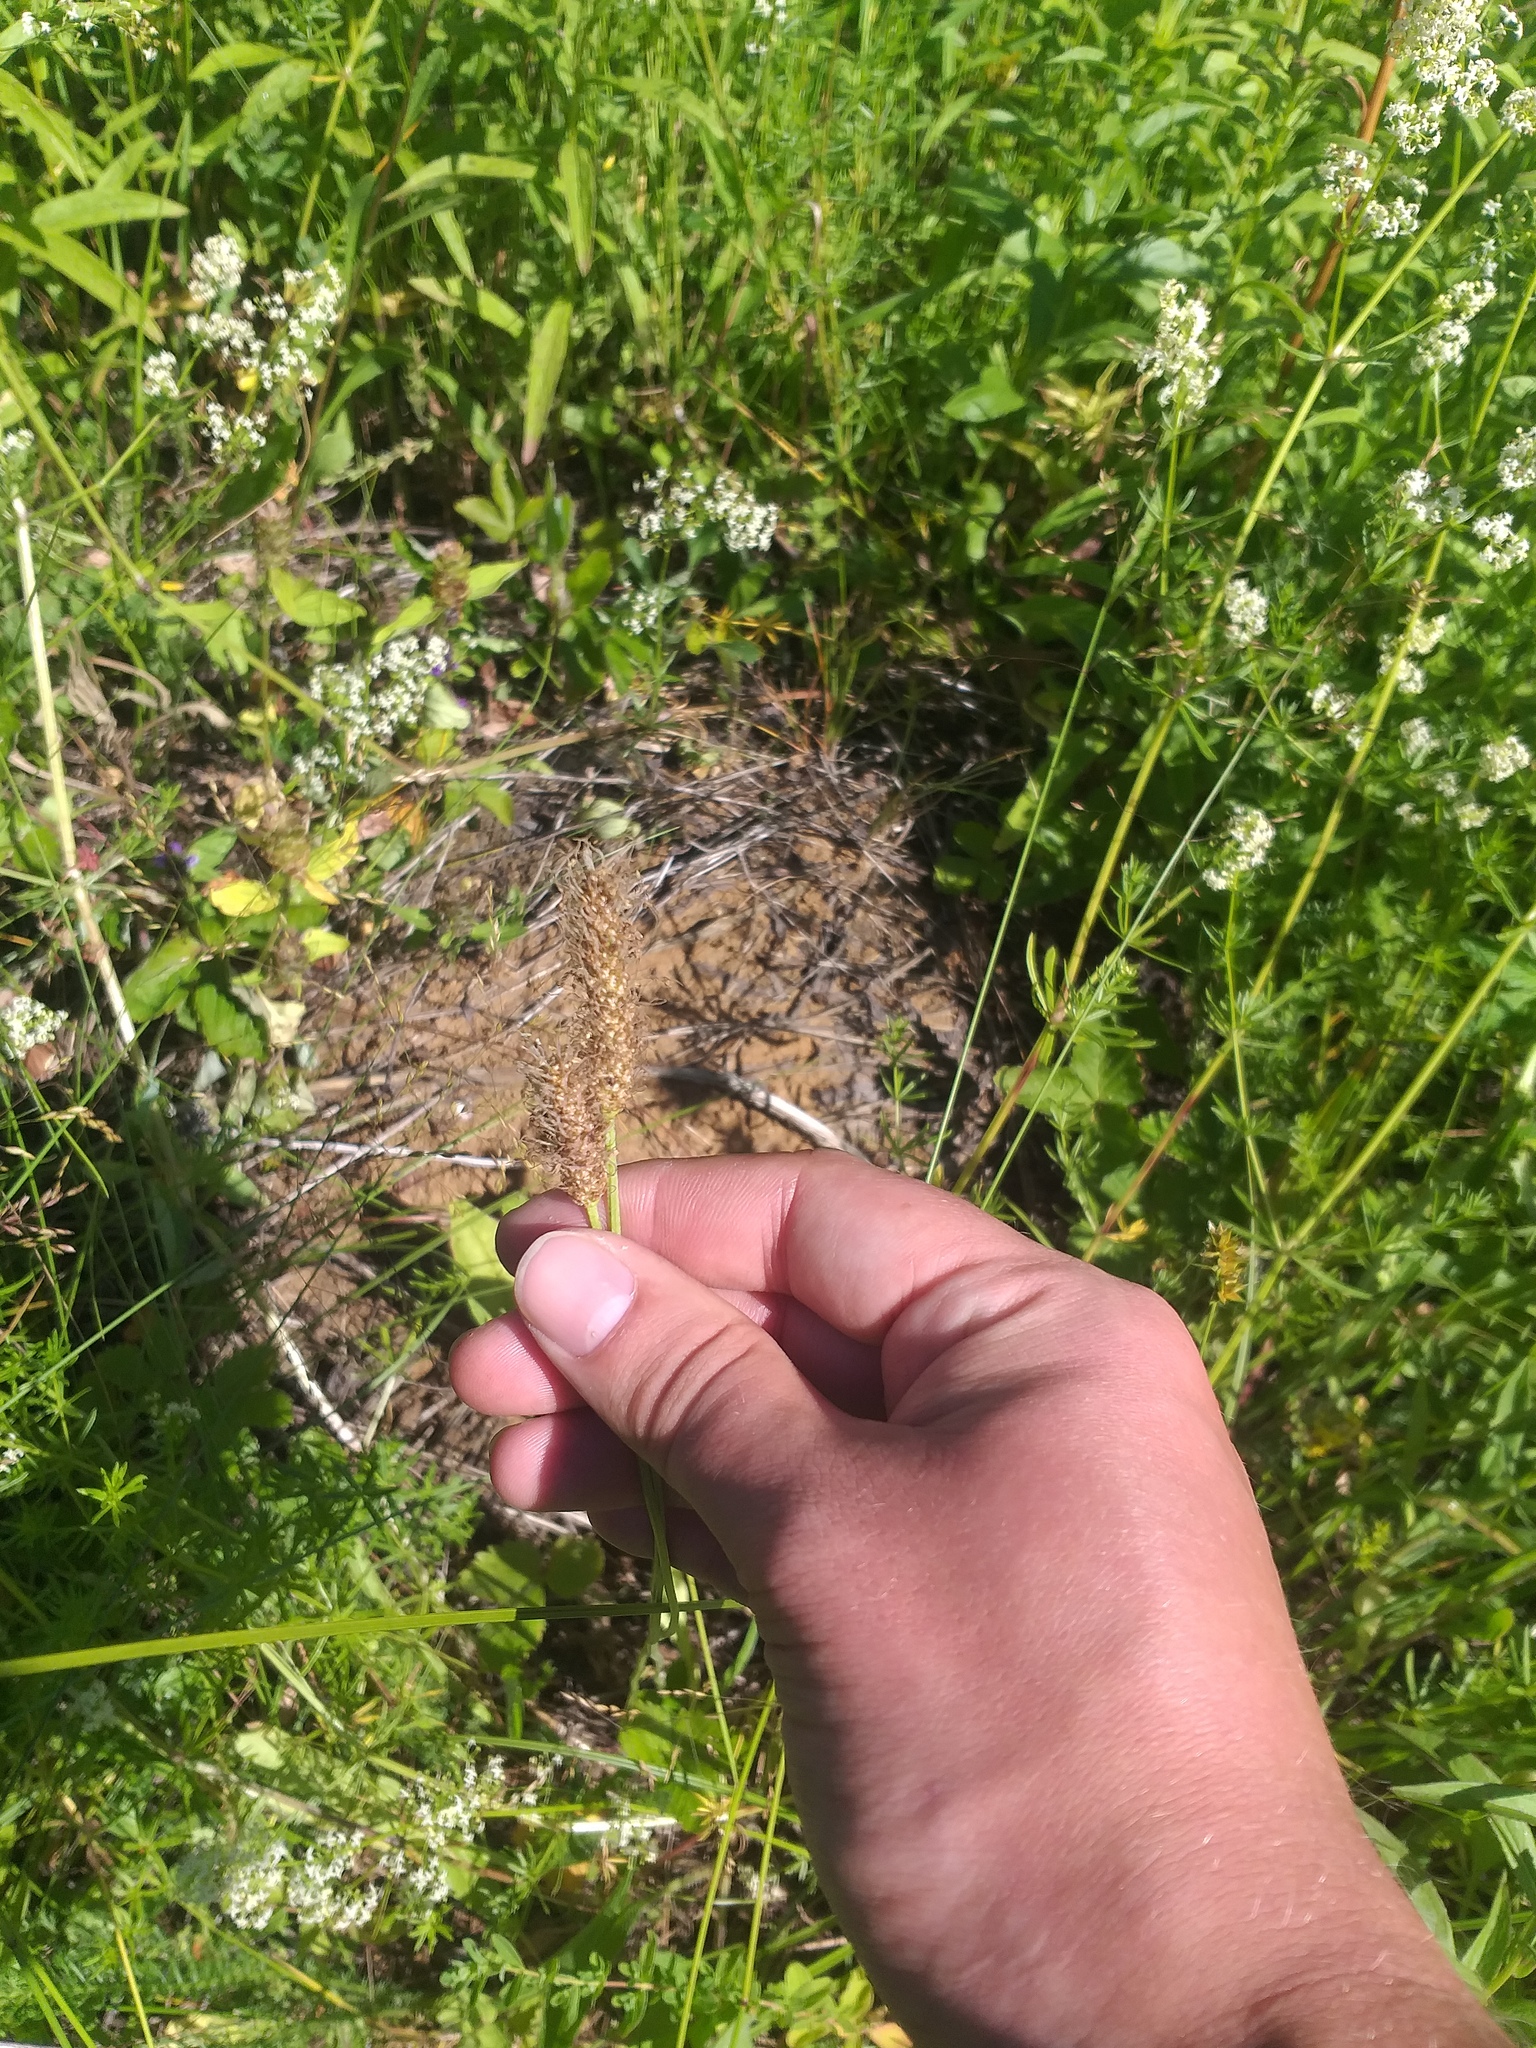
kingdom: Plantae
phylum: Tracheophyta
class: Magnoliopsida
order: Lamiales
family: Plantaginaceae
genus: Plantago
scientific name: Plantago lanceolata
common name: Ribwort plantain
